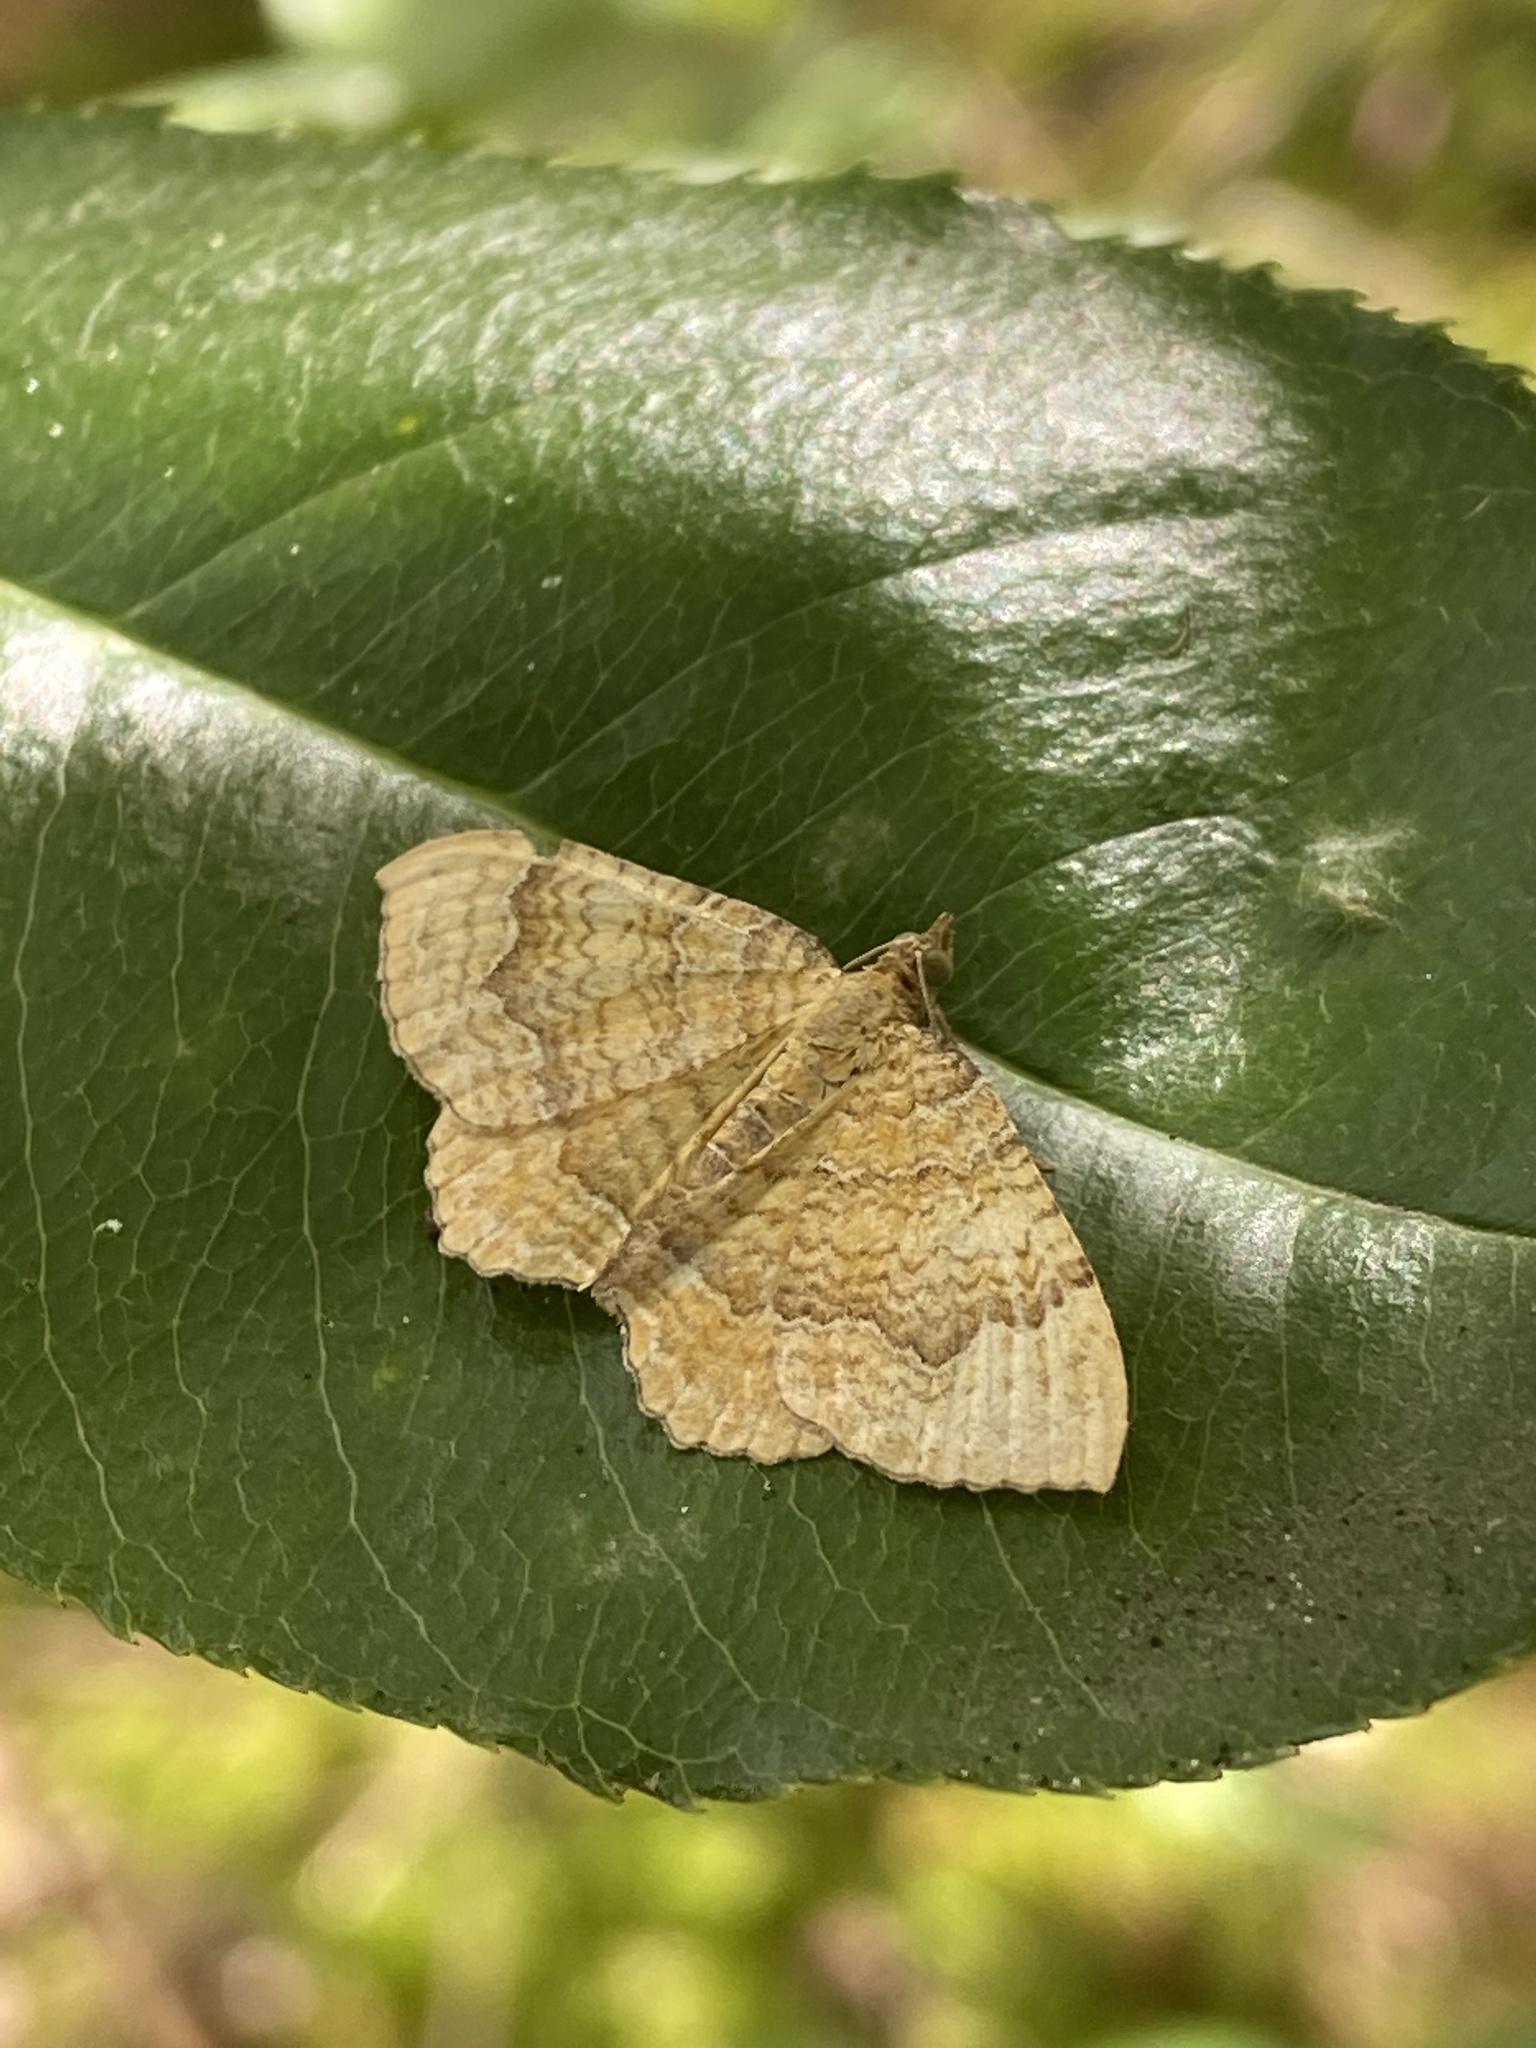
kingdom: Animalia
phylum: Arthropoda
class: Insecta
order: Lepidoptera
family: Geometridae
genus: Camptogramma
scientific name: Camptogramma bilineata
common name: Yellow shell
